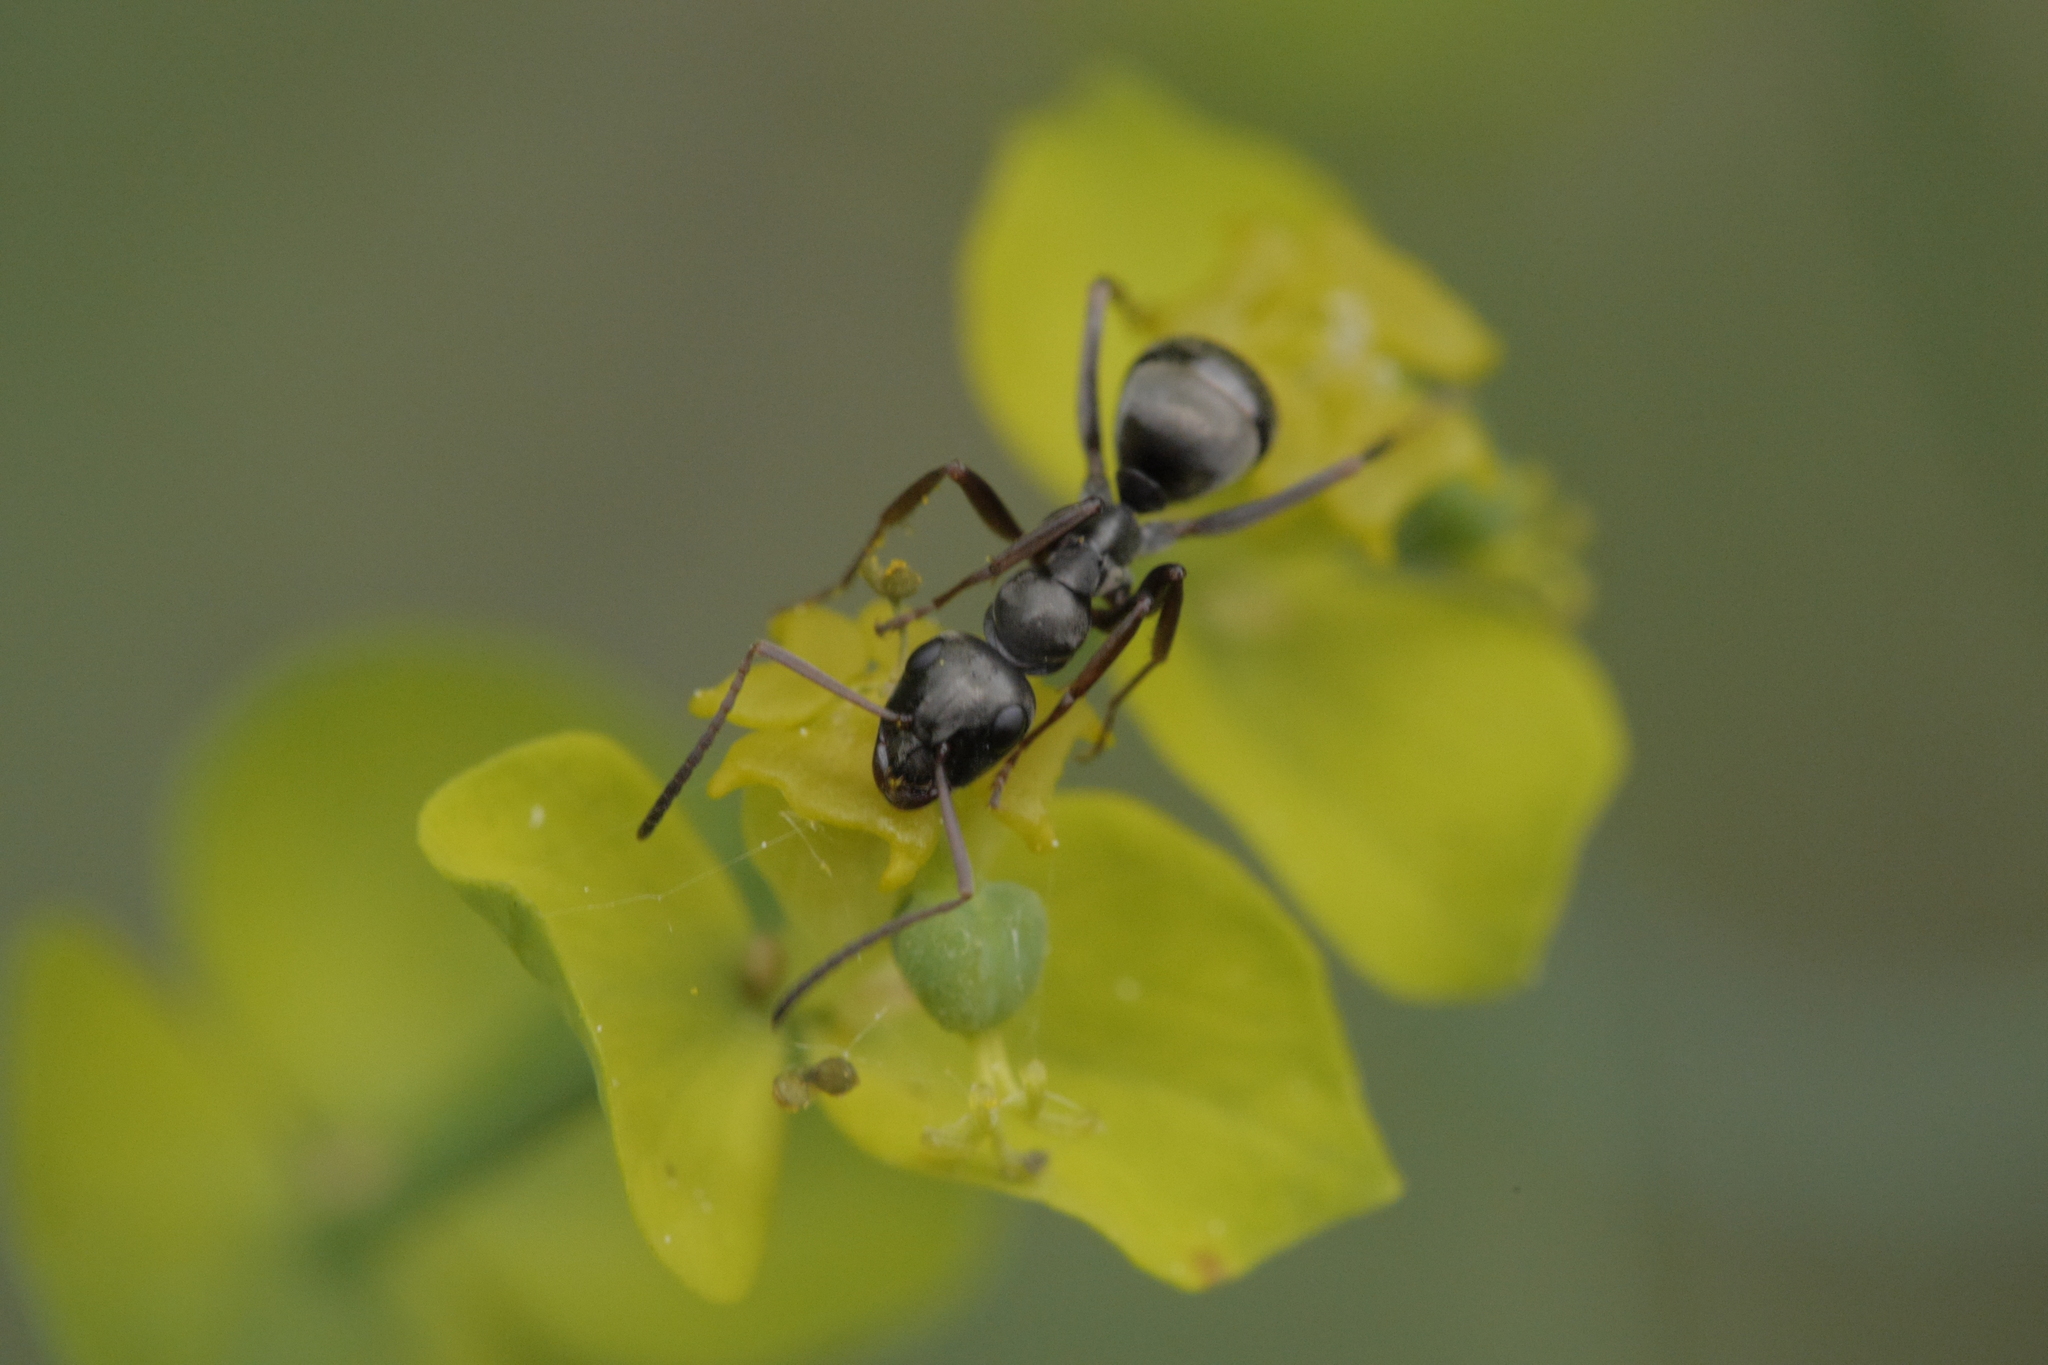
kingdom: Animalia
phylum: Arthropoda
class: Insecta
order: Hymenoptera
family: Formicidae
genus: Formica
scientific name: Formica fusca
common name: Silky ant
